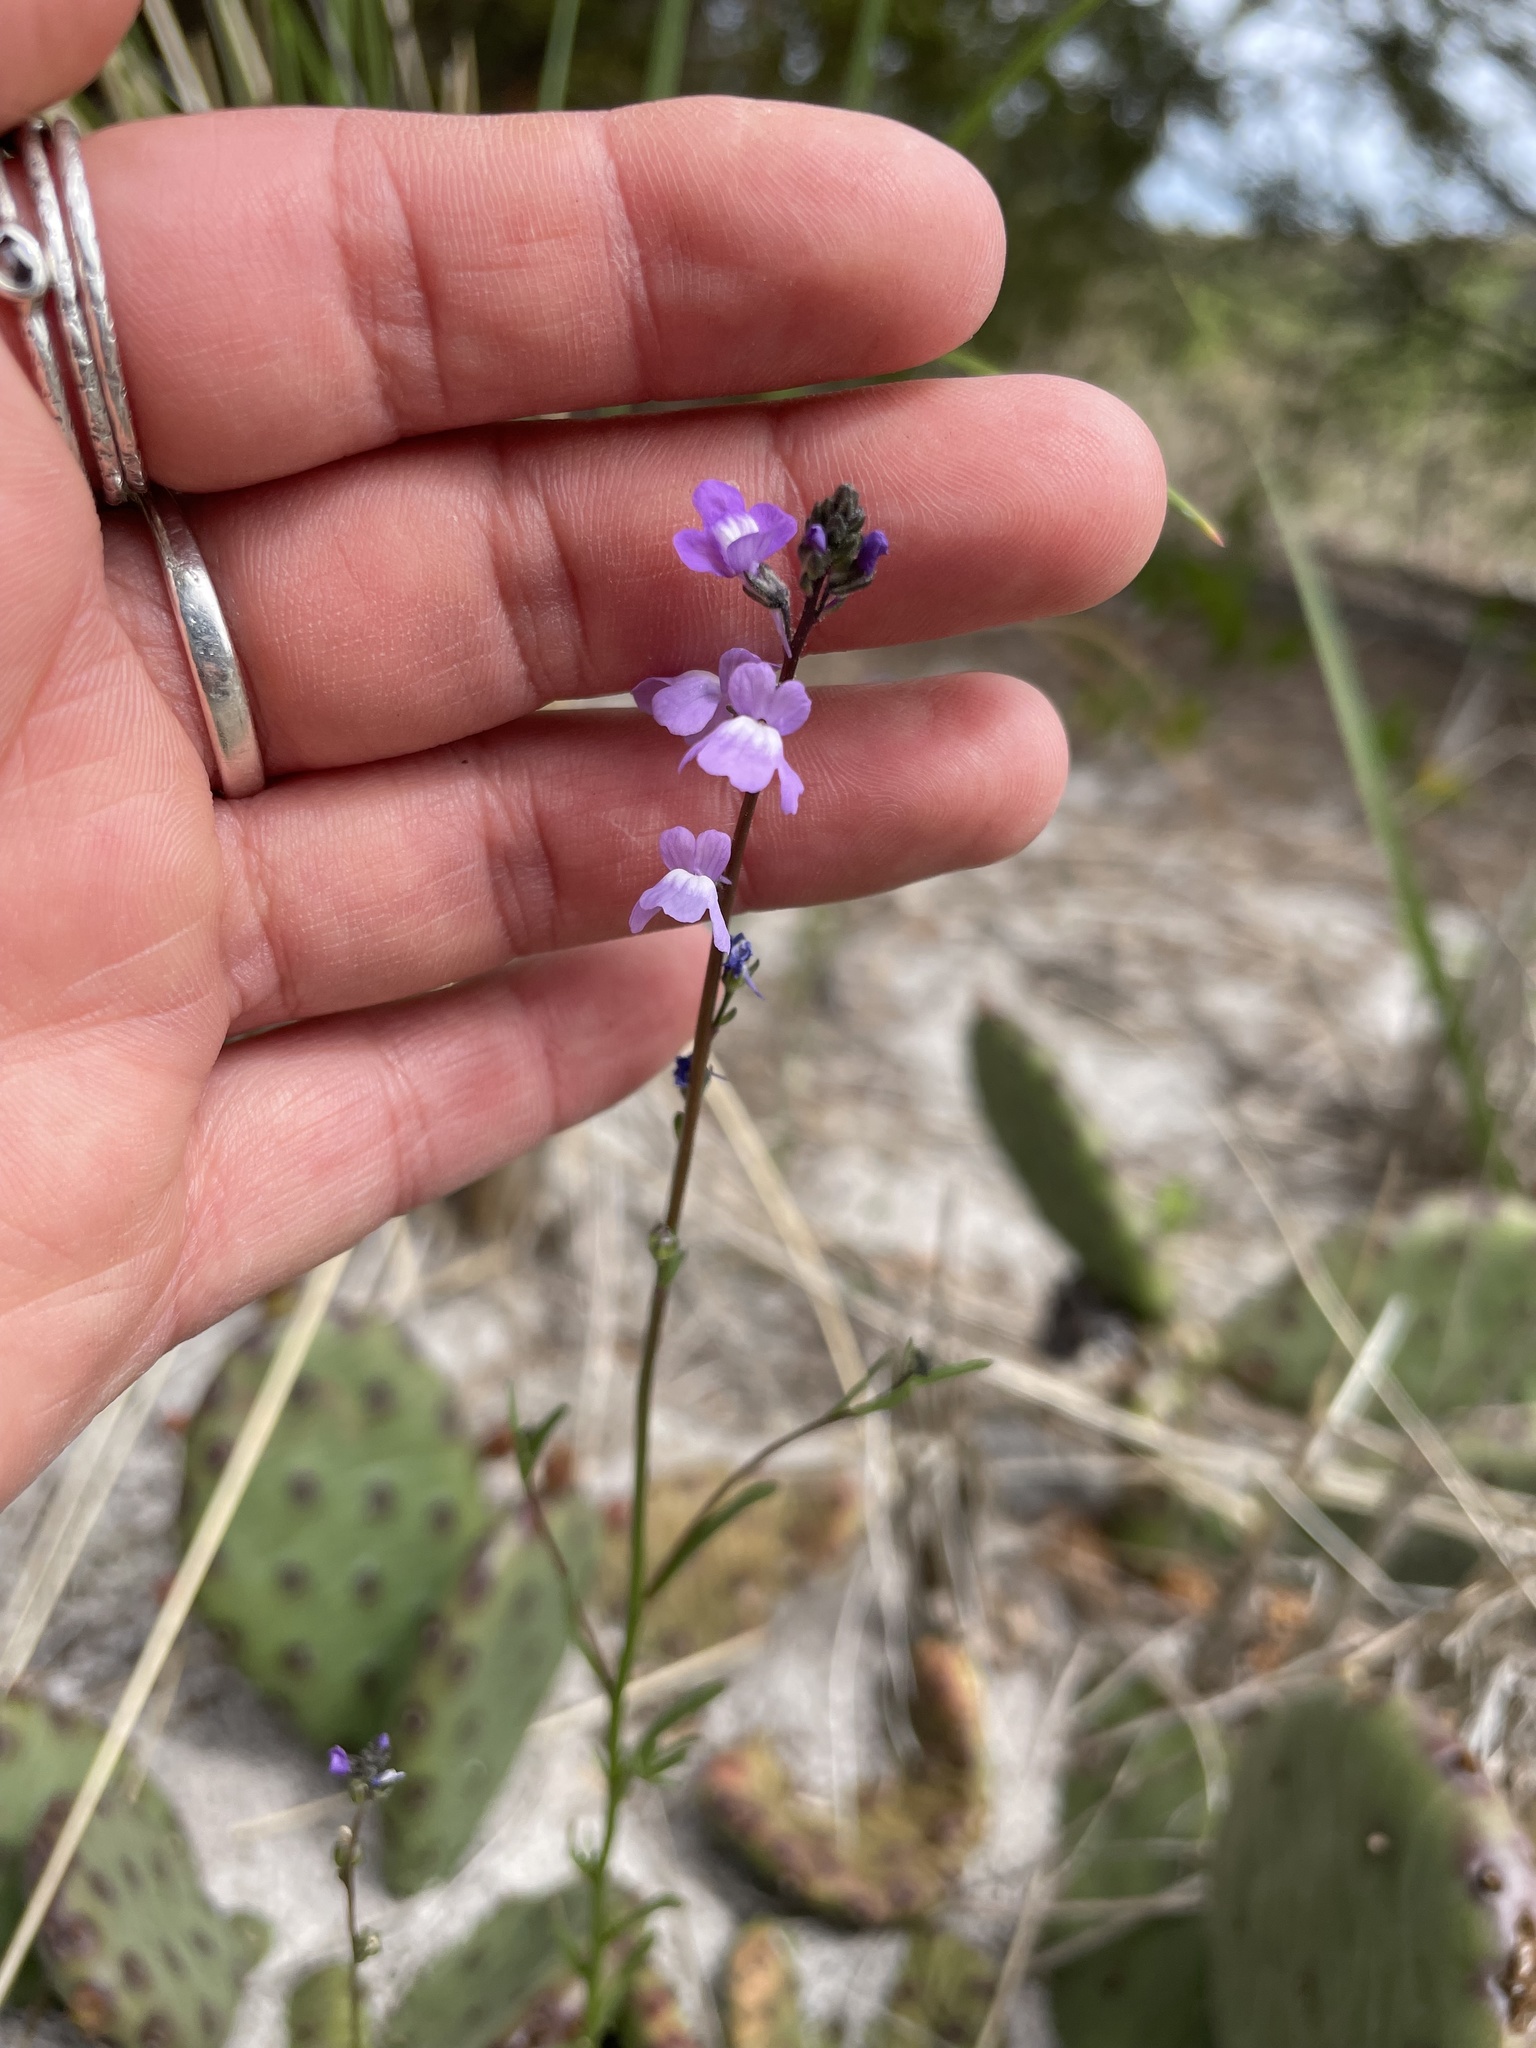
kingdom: Plantae
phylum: Tracheophyta
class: Magnoliopsida
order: Lamiales
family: Plantaginaceae
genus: Nuttallanthus
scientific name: Nuttallanthus canadensis
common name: Blue toadflax
